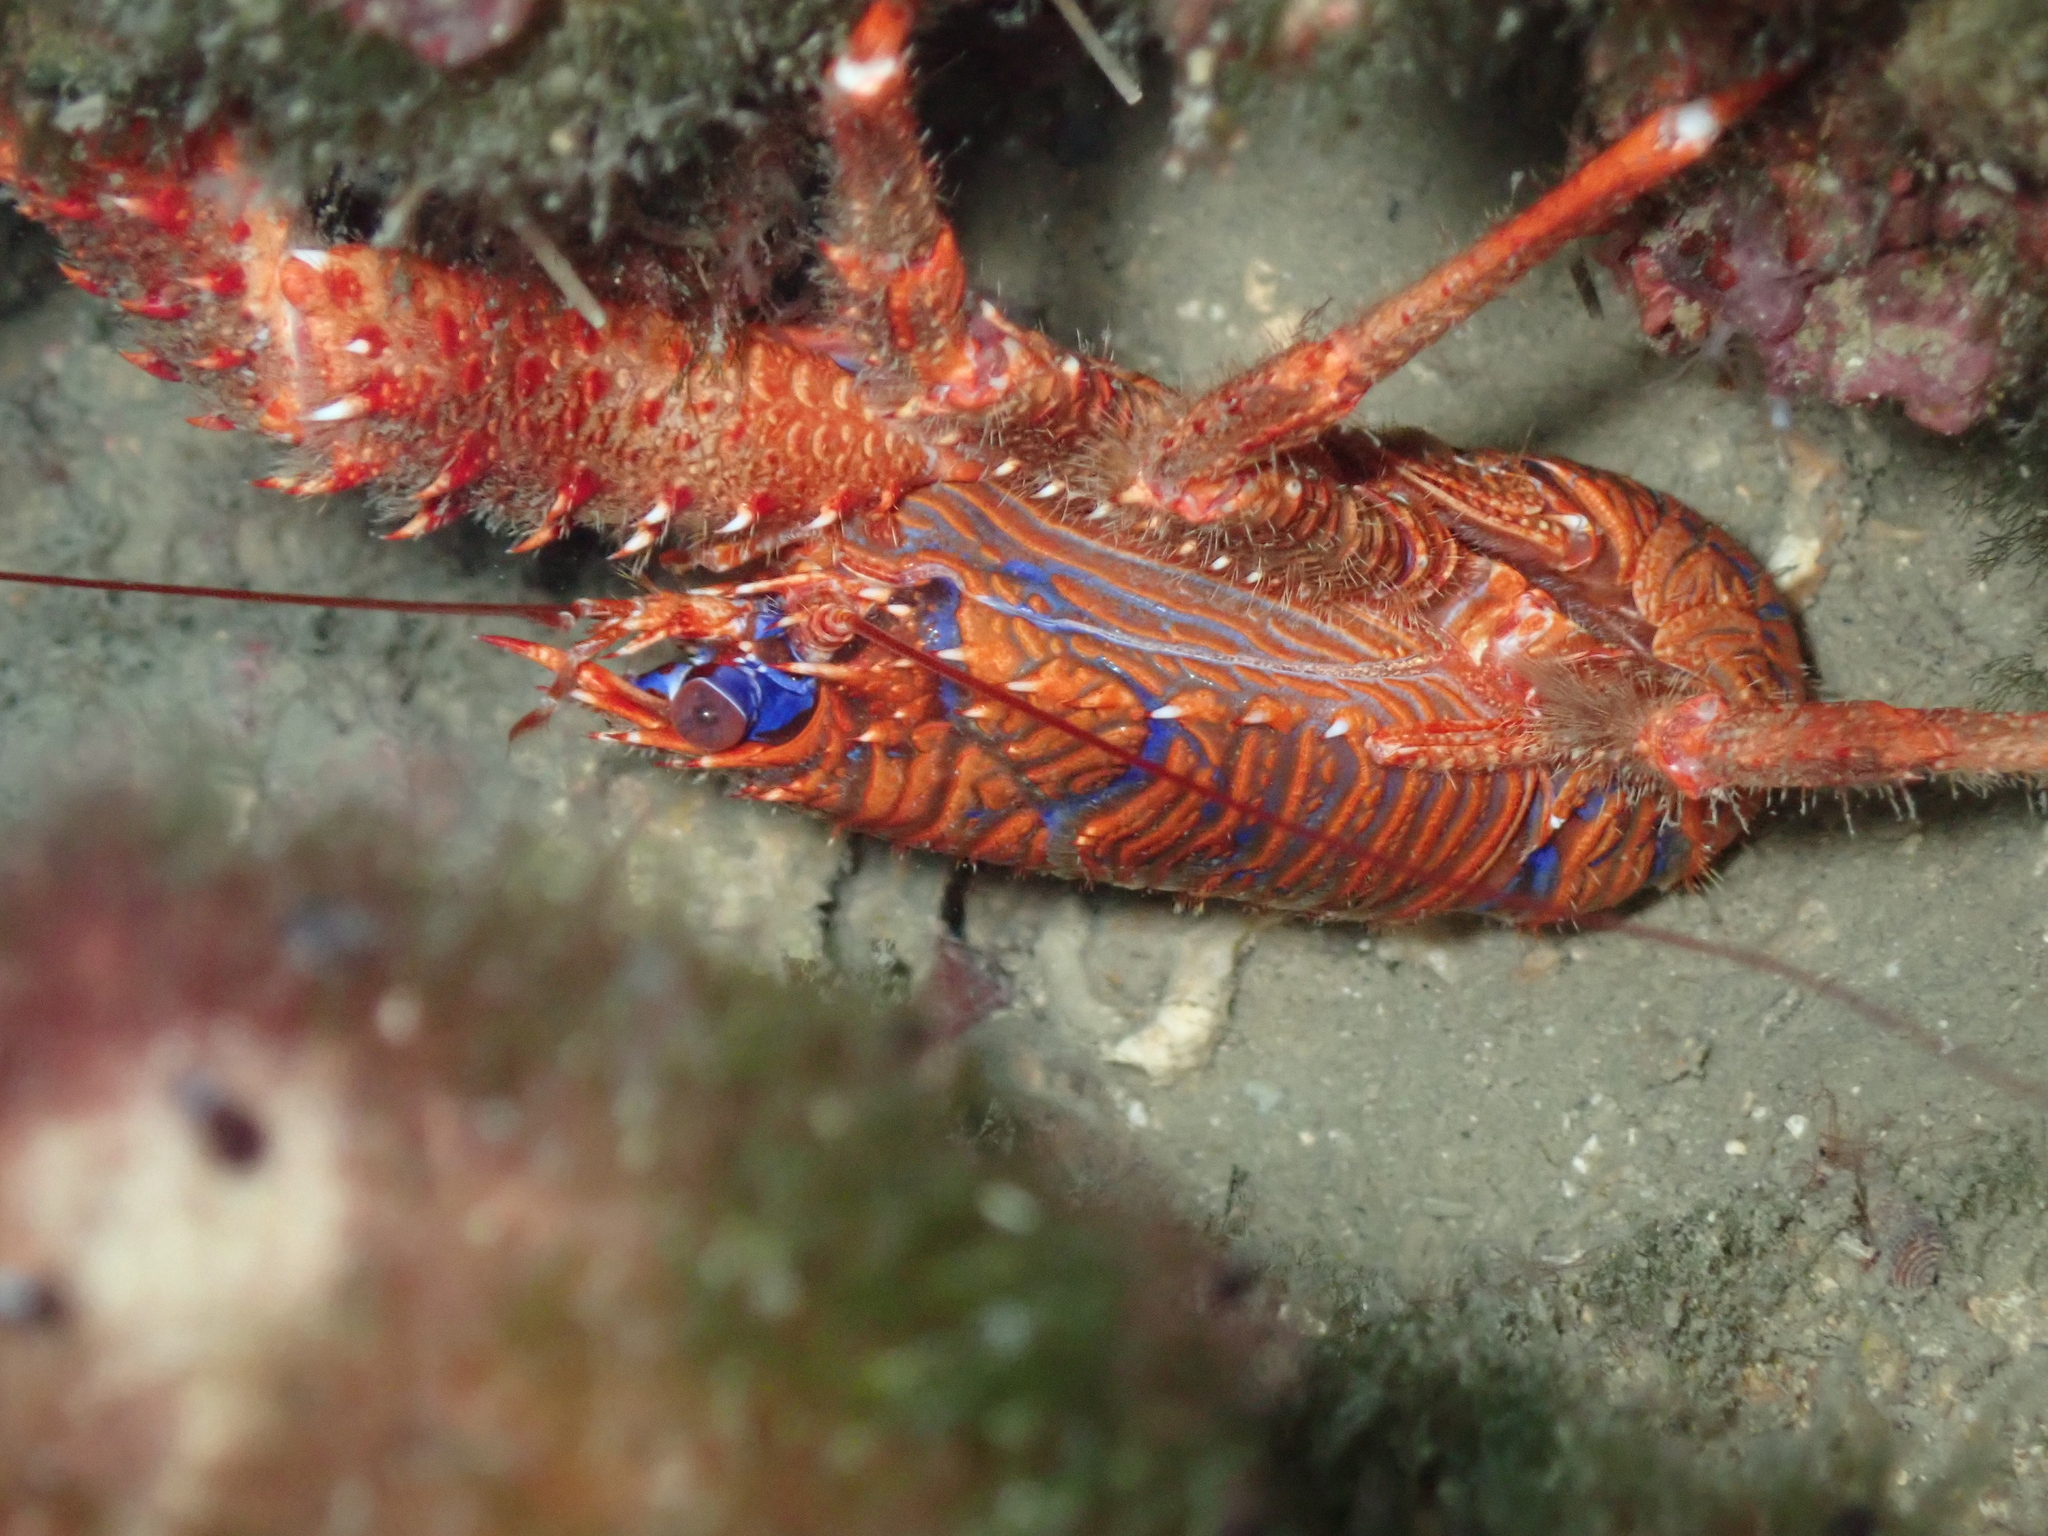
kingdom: Animalia
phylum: Arthropoda
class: Malacostraca
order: Decapoda
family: Galatheidae
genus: Galathea
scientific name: Galathea strigosa
